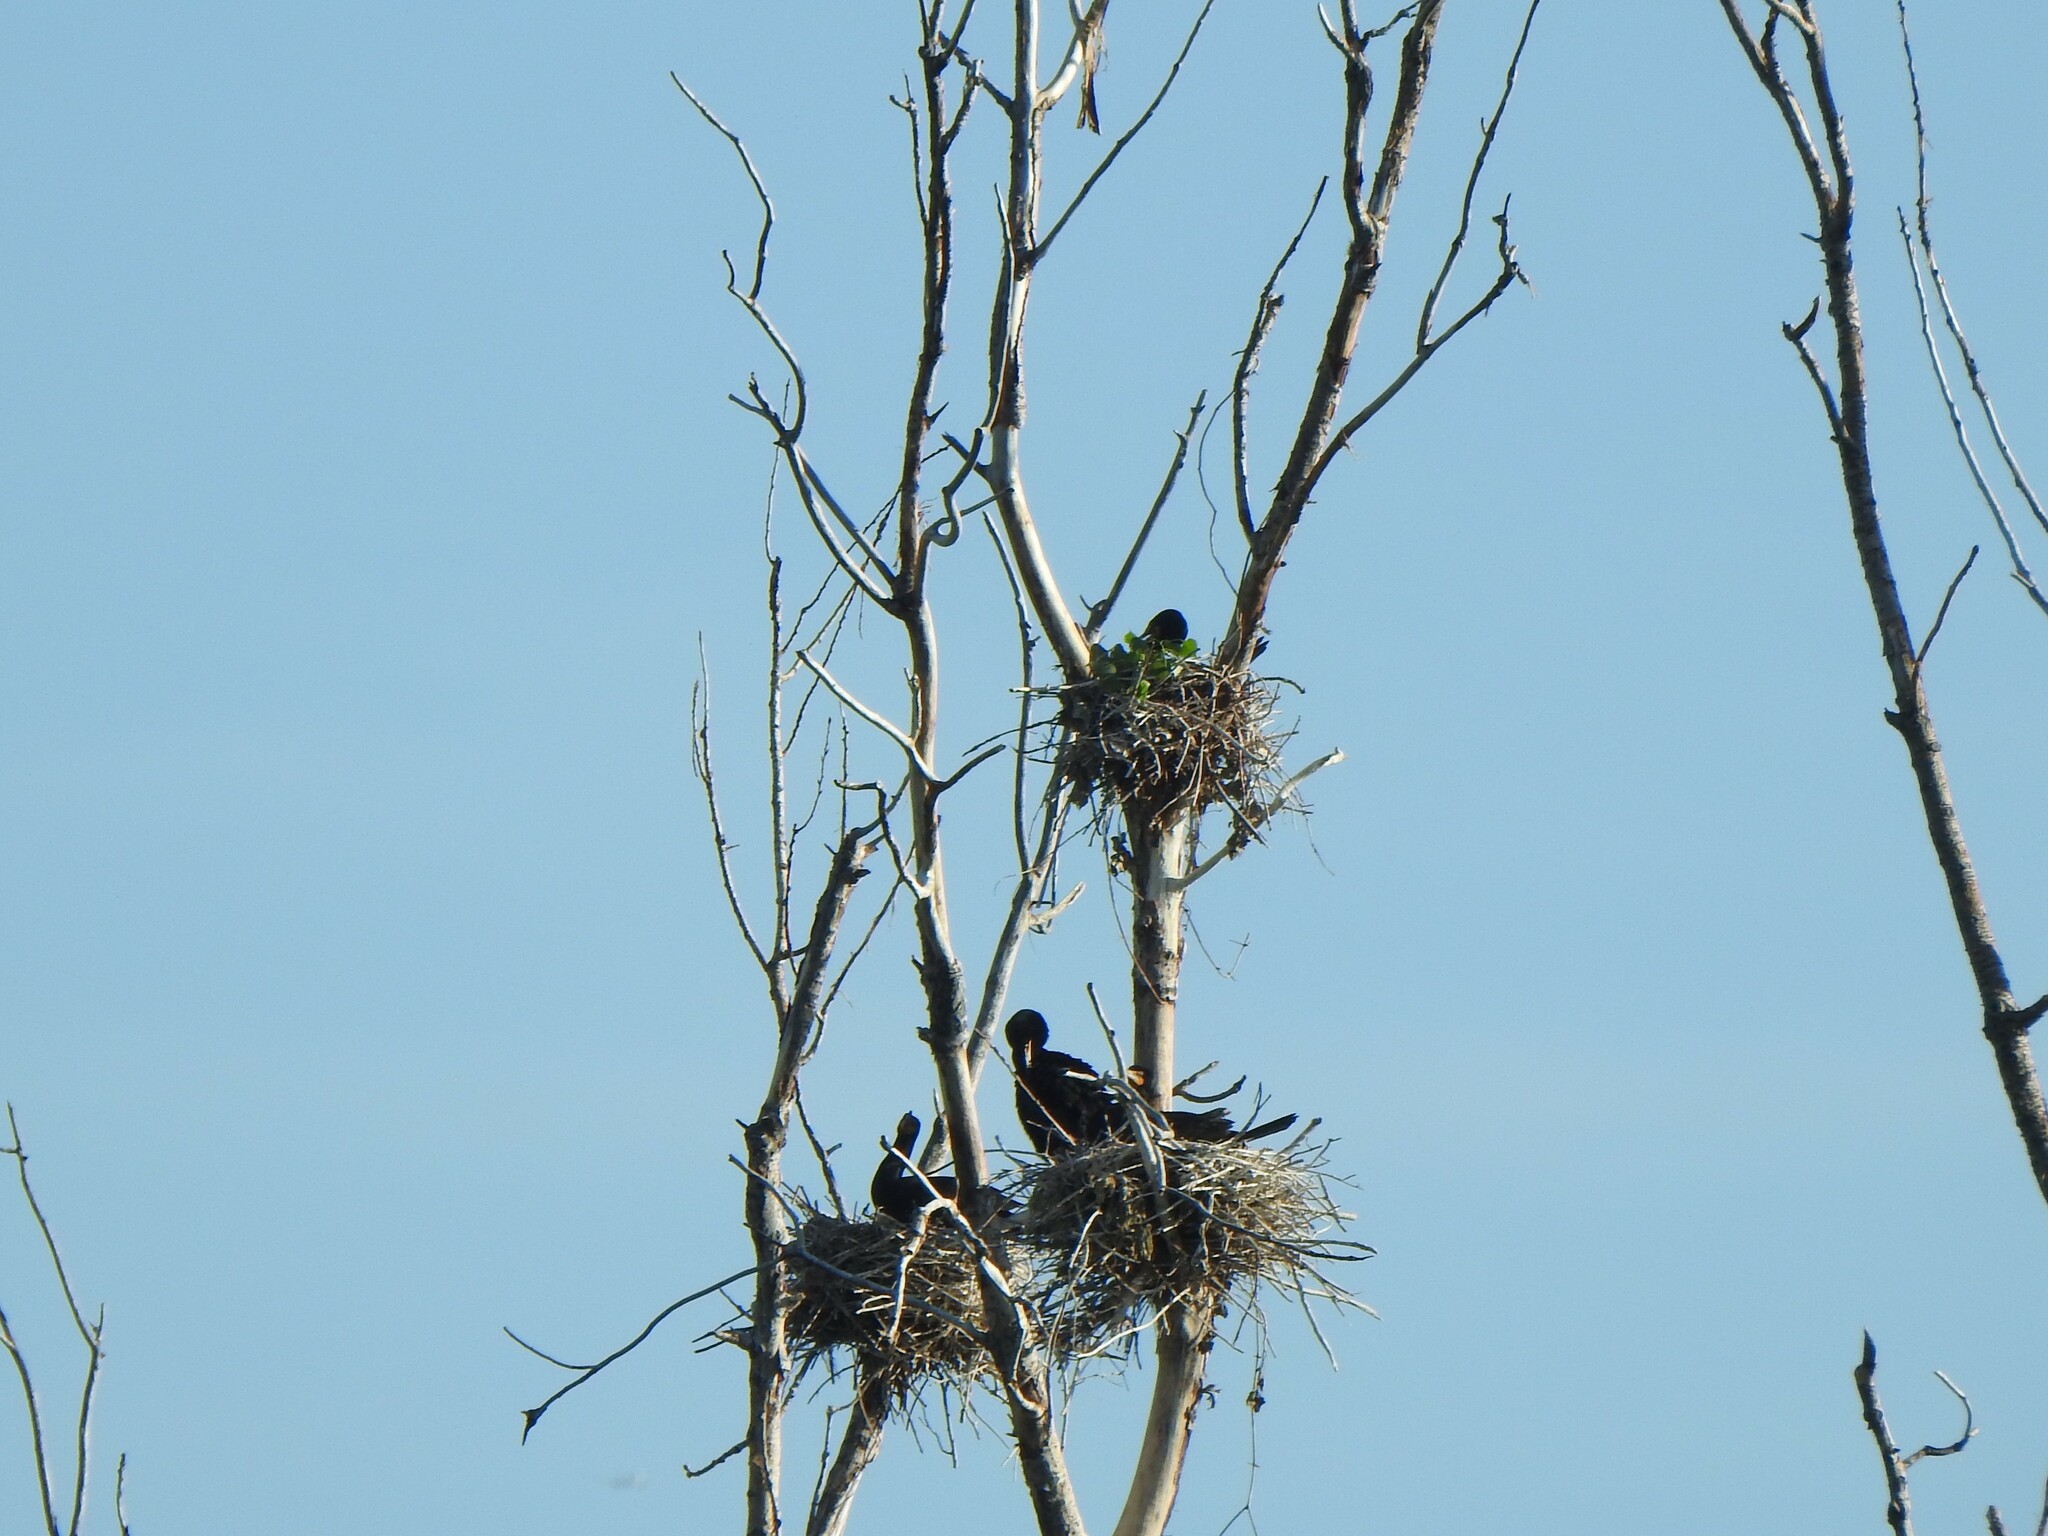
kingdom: Animalia
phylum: Chordata
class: Aves
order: Suliformes
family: Phalacrocoracidae
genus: Phalacrocorax
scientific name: Phalacrocorax auritus
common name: Double-crested cormorant
